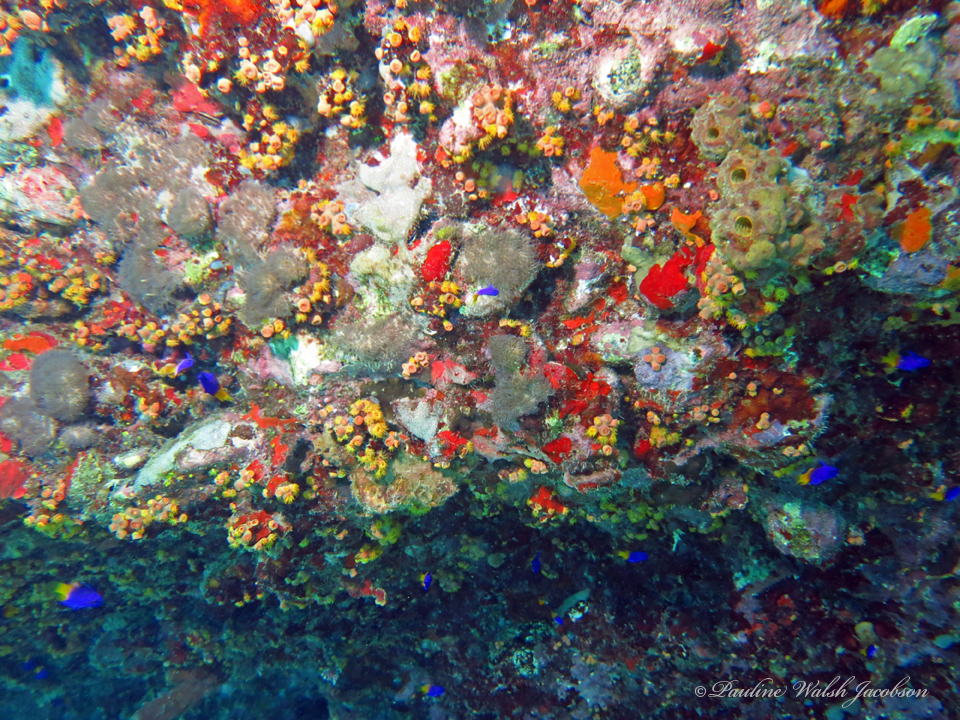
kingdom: Animalia
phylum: Chordata
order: Perciformes
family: Grammatidae
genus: Gramma
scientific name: Gramma loreto
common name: Fairy basslet
